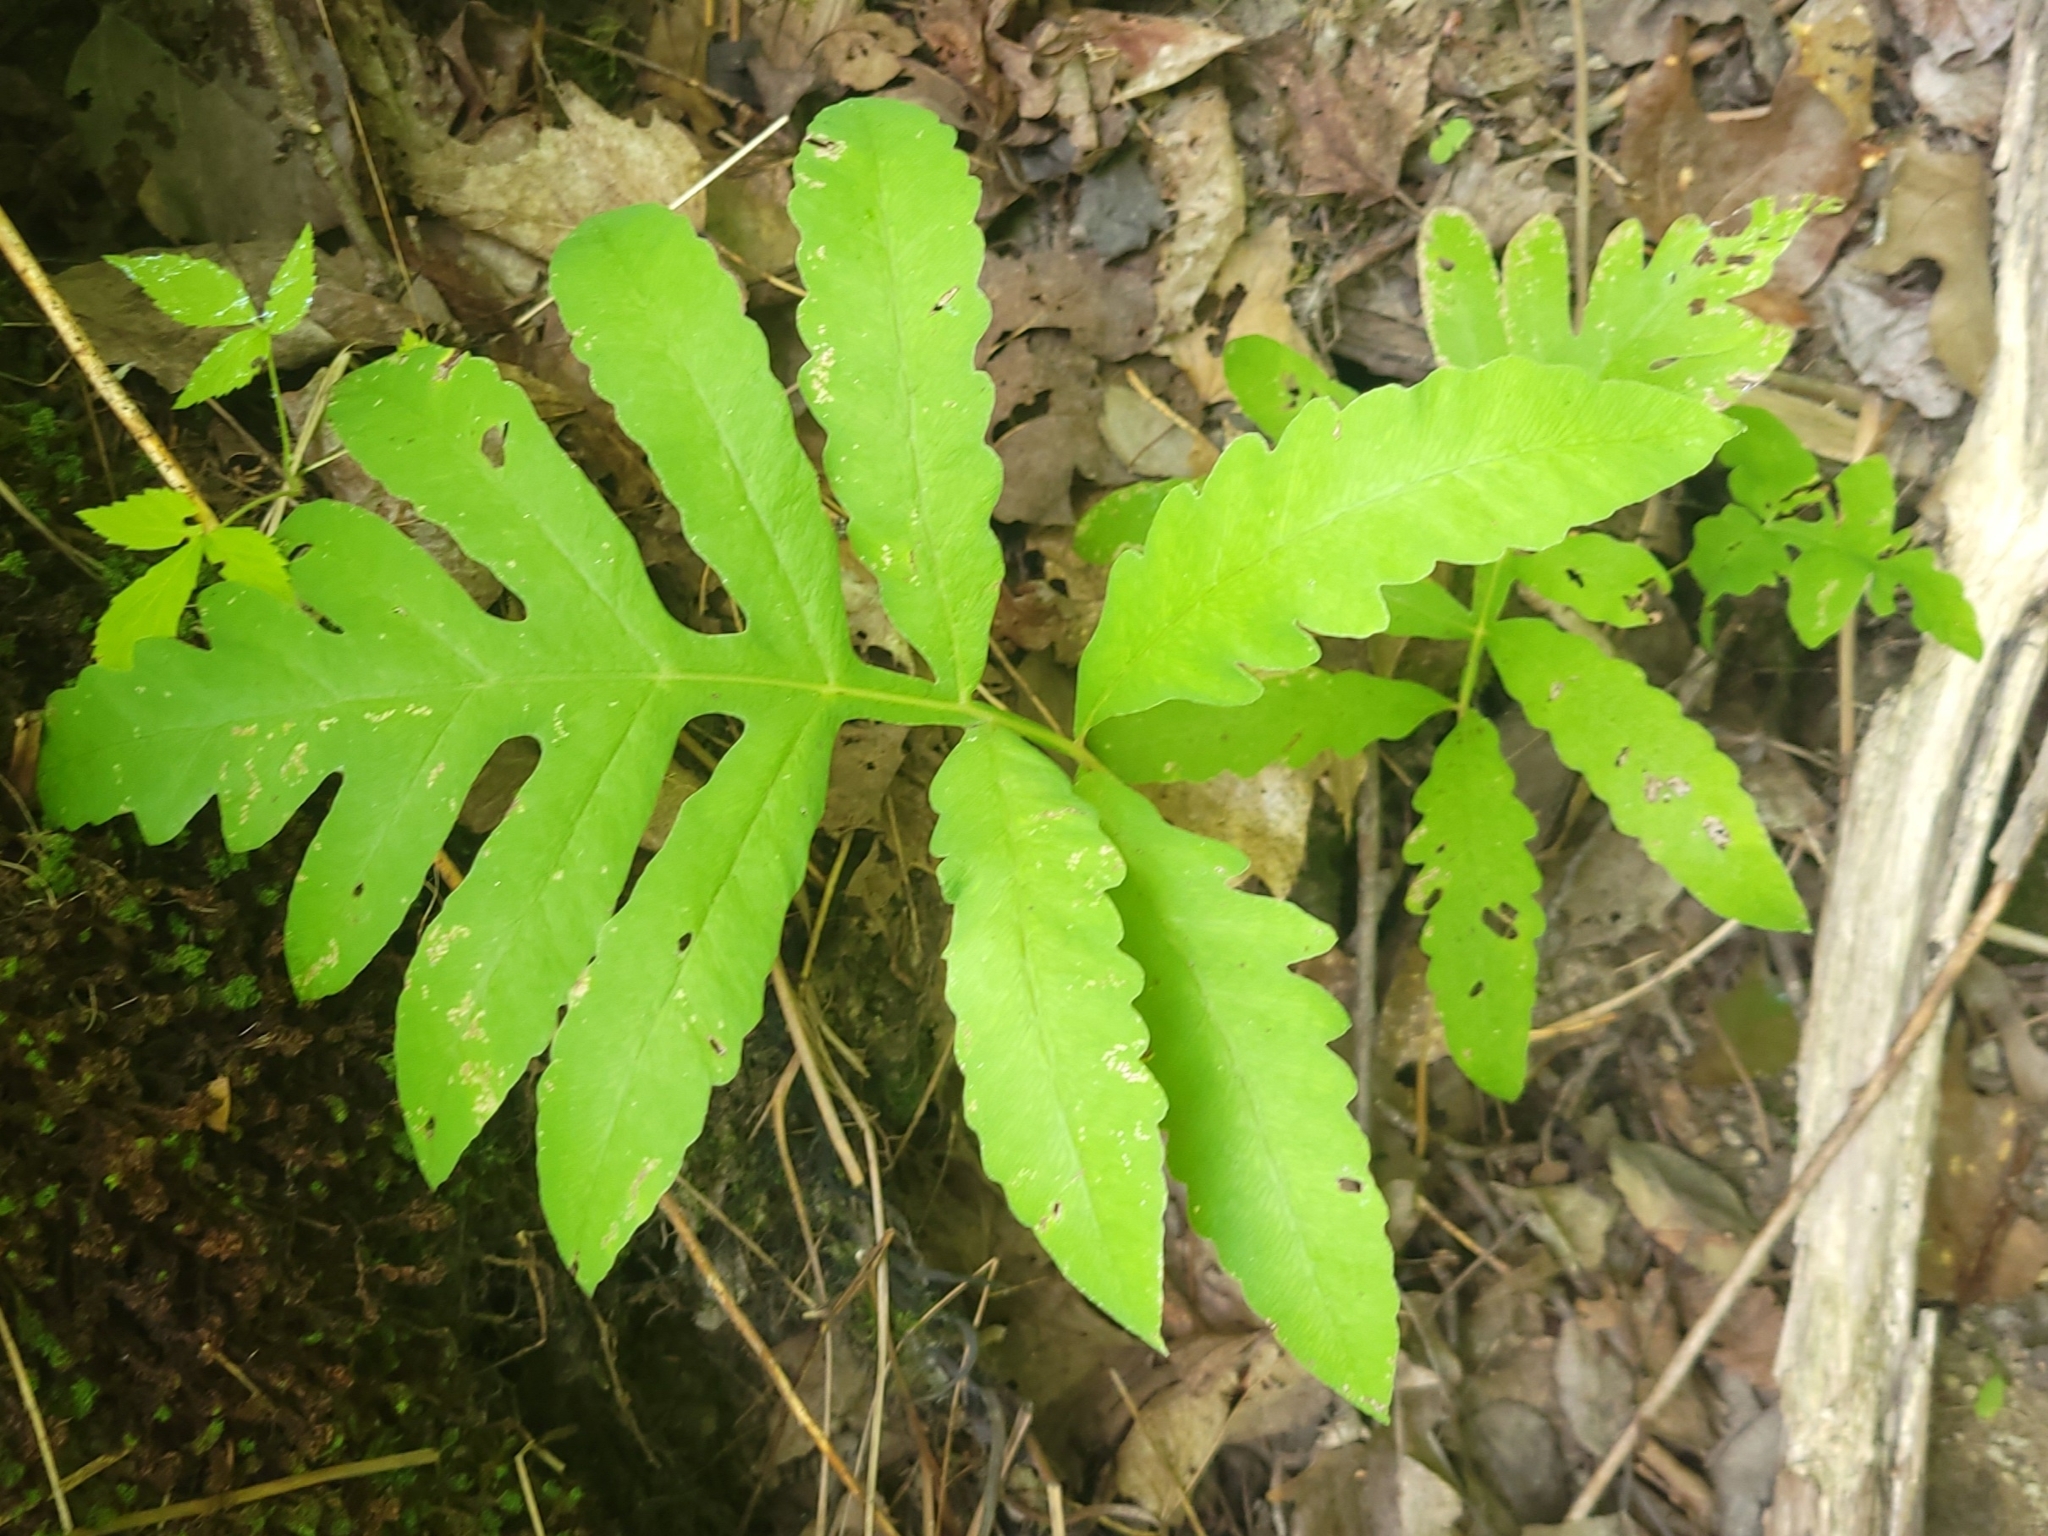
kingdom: Plantae
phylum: Tracheophyta
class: Polypodiopsida
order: Polypodiales
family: Onocleaceae
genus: Onoclea
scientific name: Onoclea sensibilis
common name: Sensitive fern
